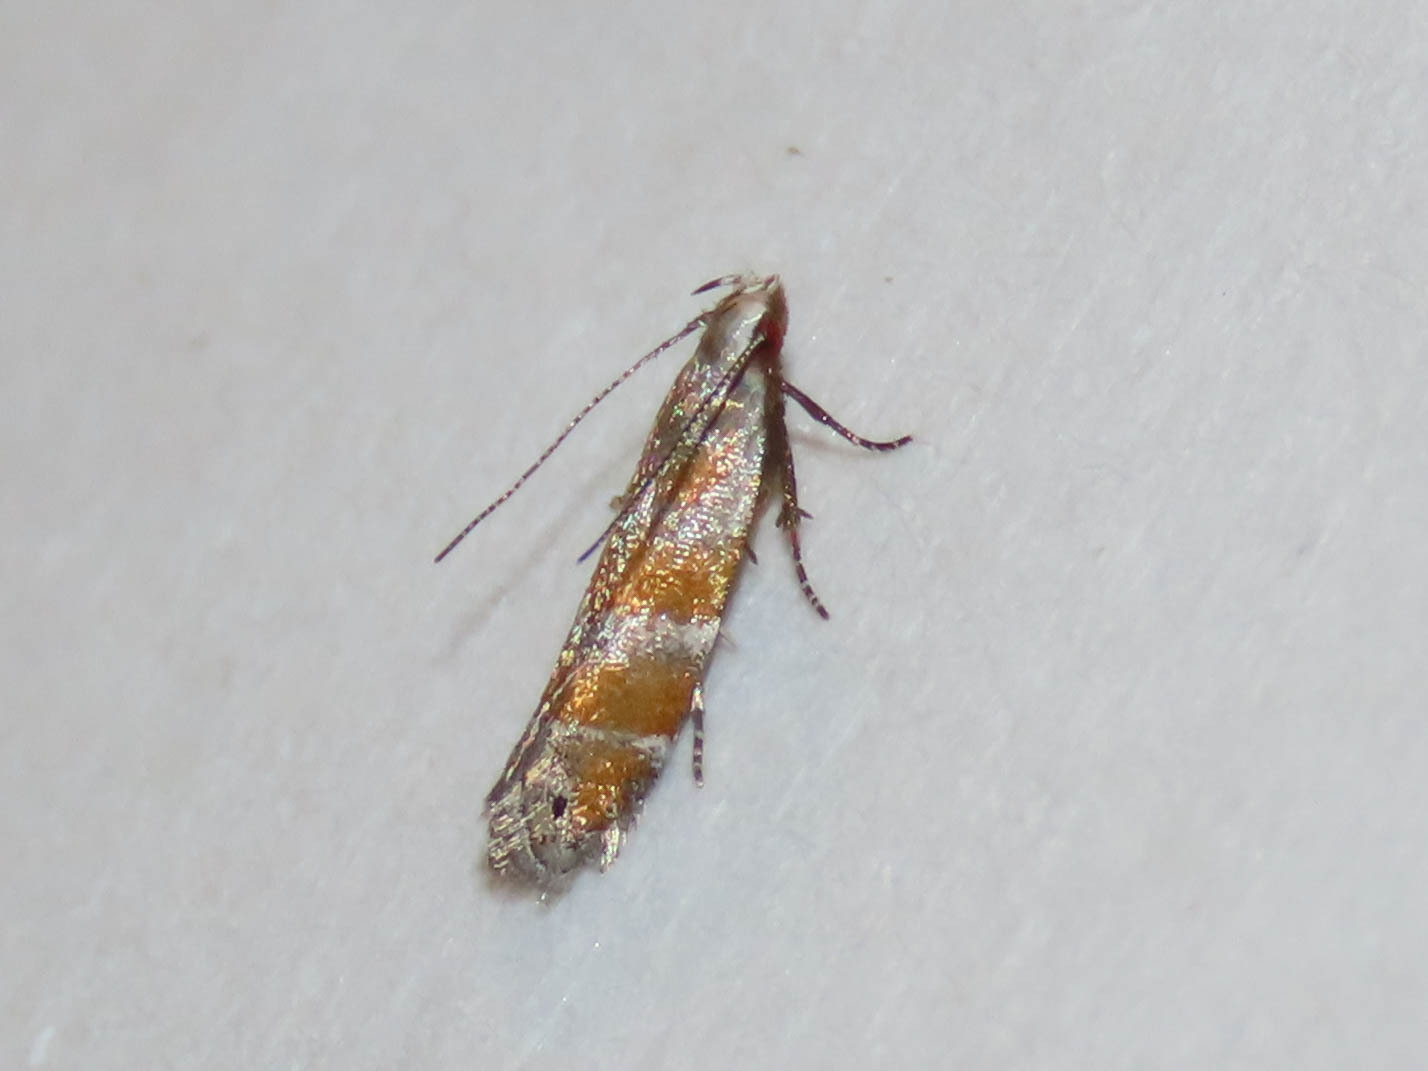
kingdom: Animalia
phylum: Arthropoda
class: Insecta
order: Lepidoptera
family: Gelechiidae
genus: Battaristis
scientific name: Battaristis vittella
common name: Orange stripe-backed moth
